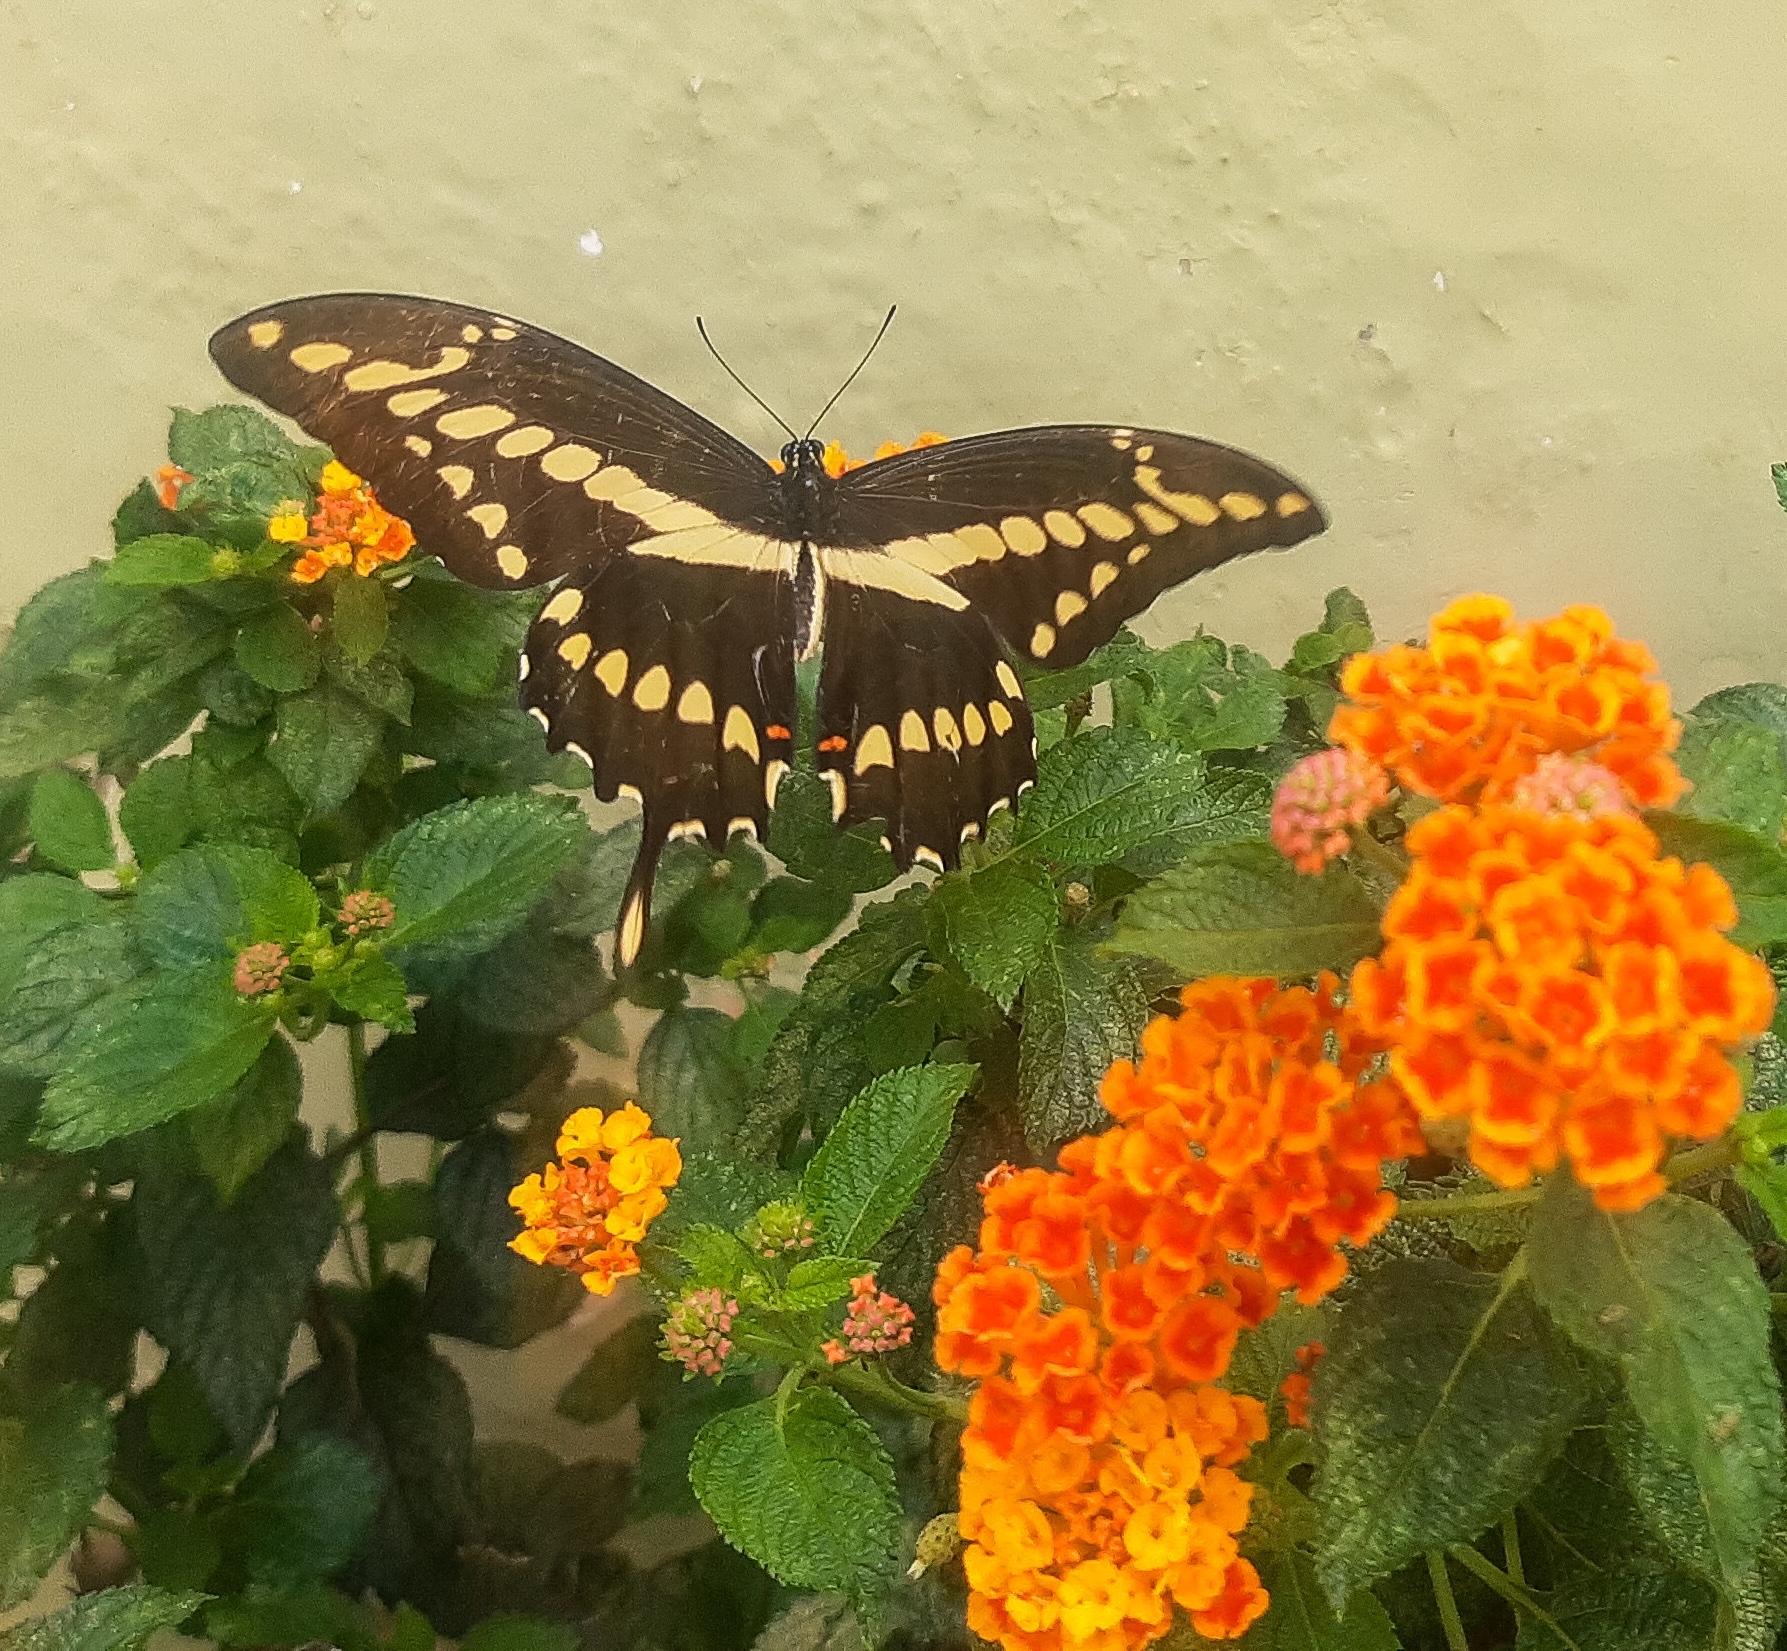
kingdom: Animalia
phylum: Arthropoda
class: Insecta
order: Lepidoptera
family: Papilionidae
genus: Papilio
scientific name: Papilio thoas
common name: King swallowtail
